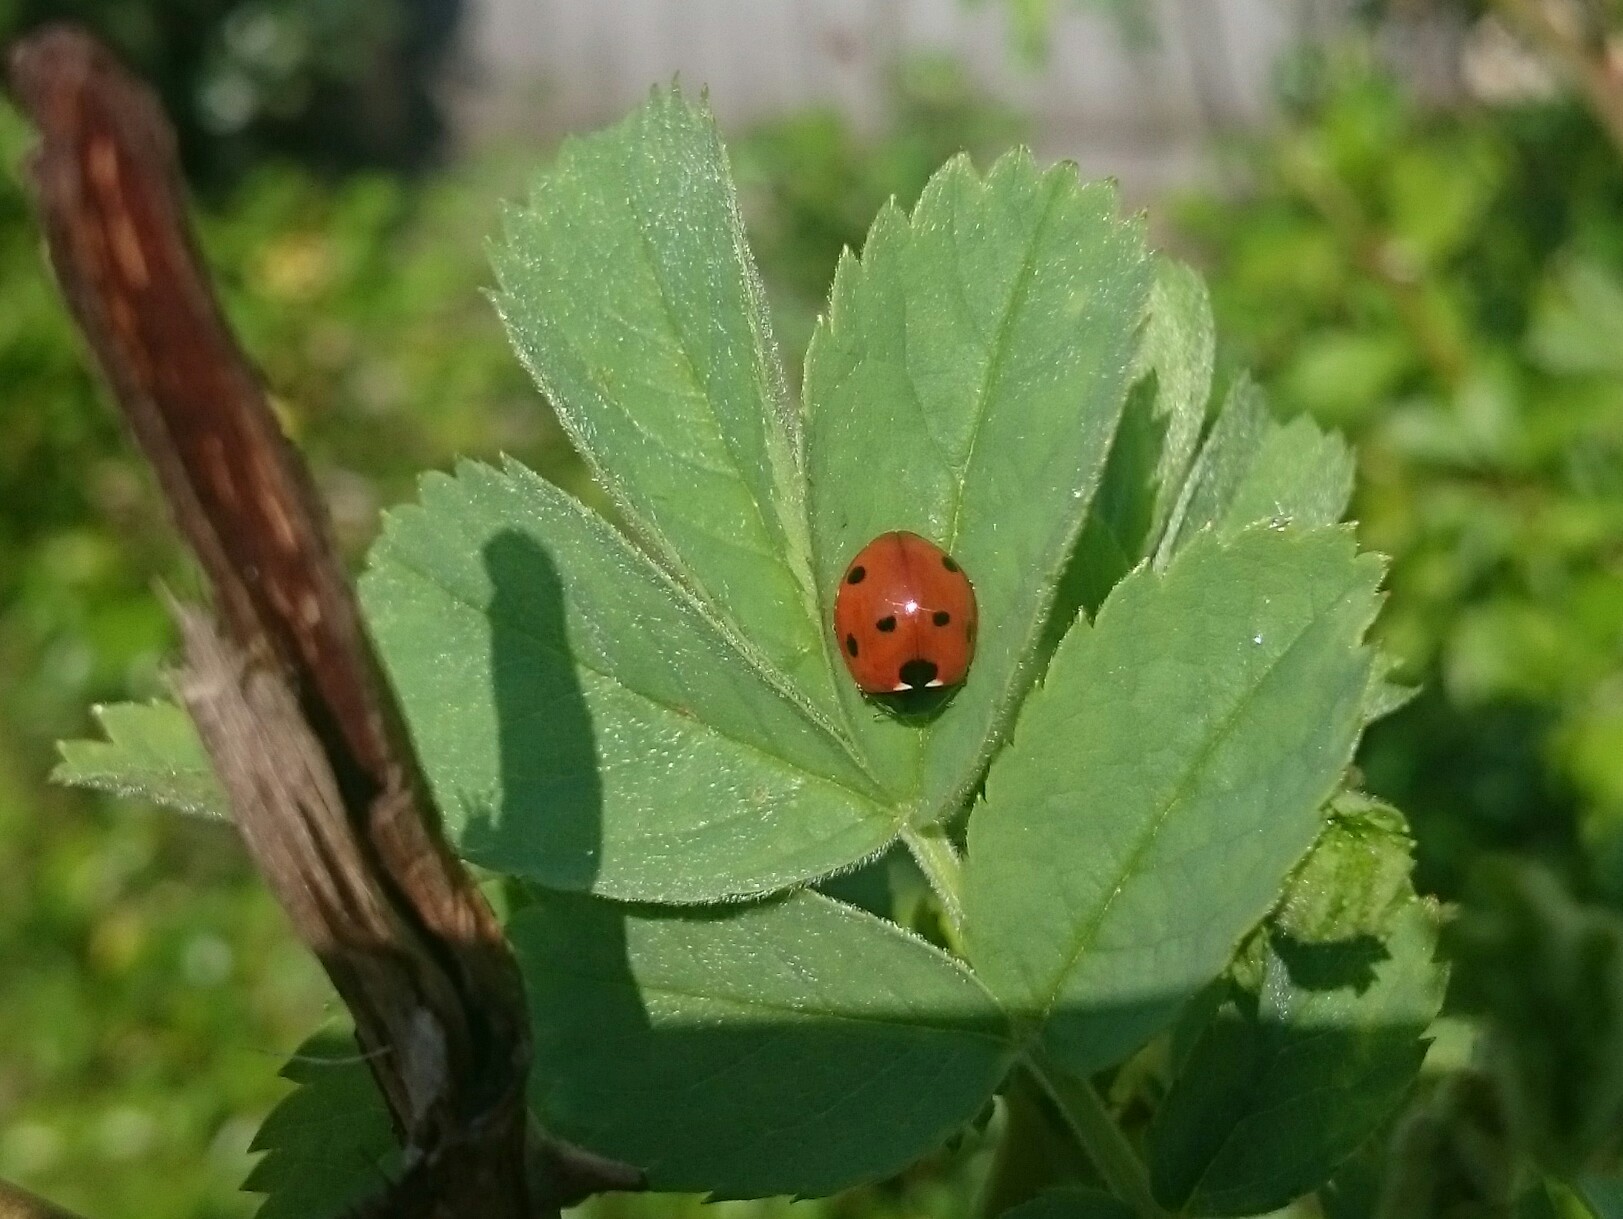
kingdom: Animalia
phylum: Arthropoda
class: Insecta
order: Coleoptera
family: Coccinellidae
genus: Coccinella
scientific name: Coccinella septempunctata
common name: Sevenspotted lady beetle
